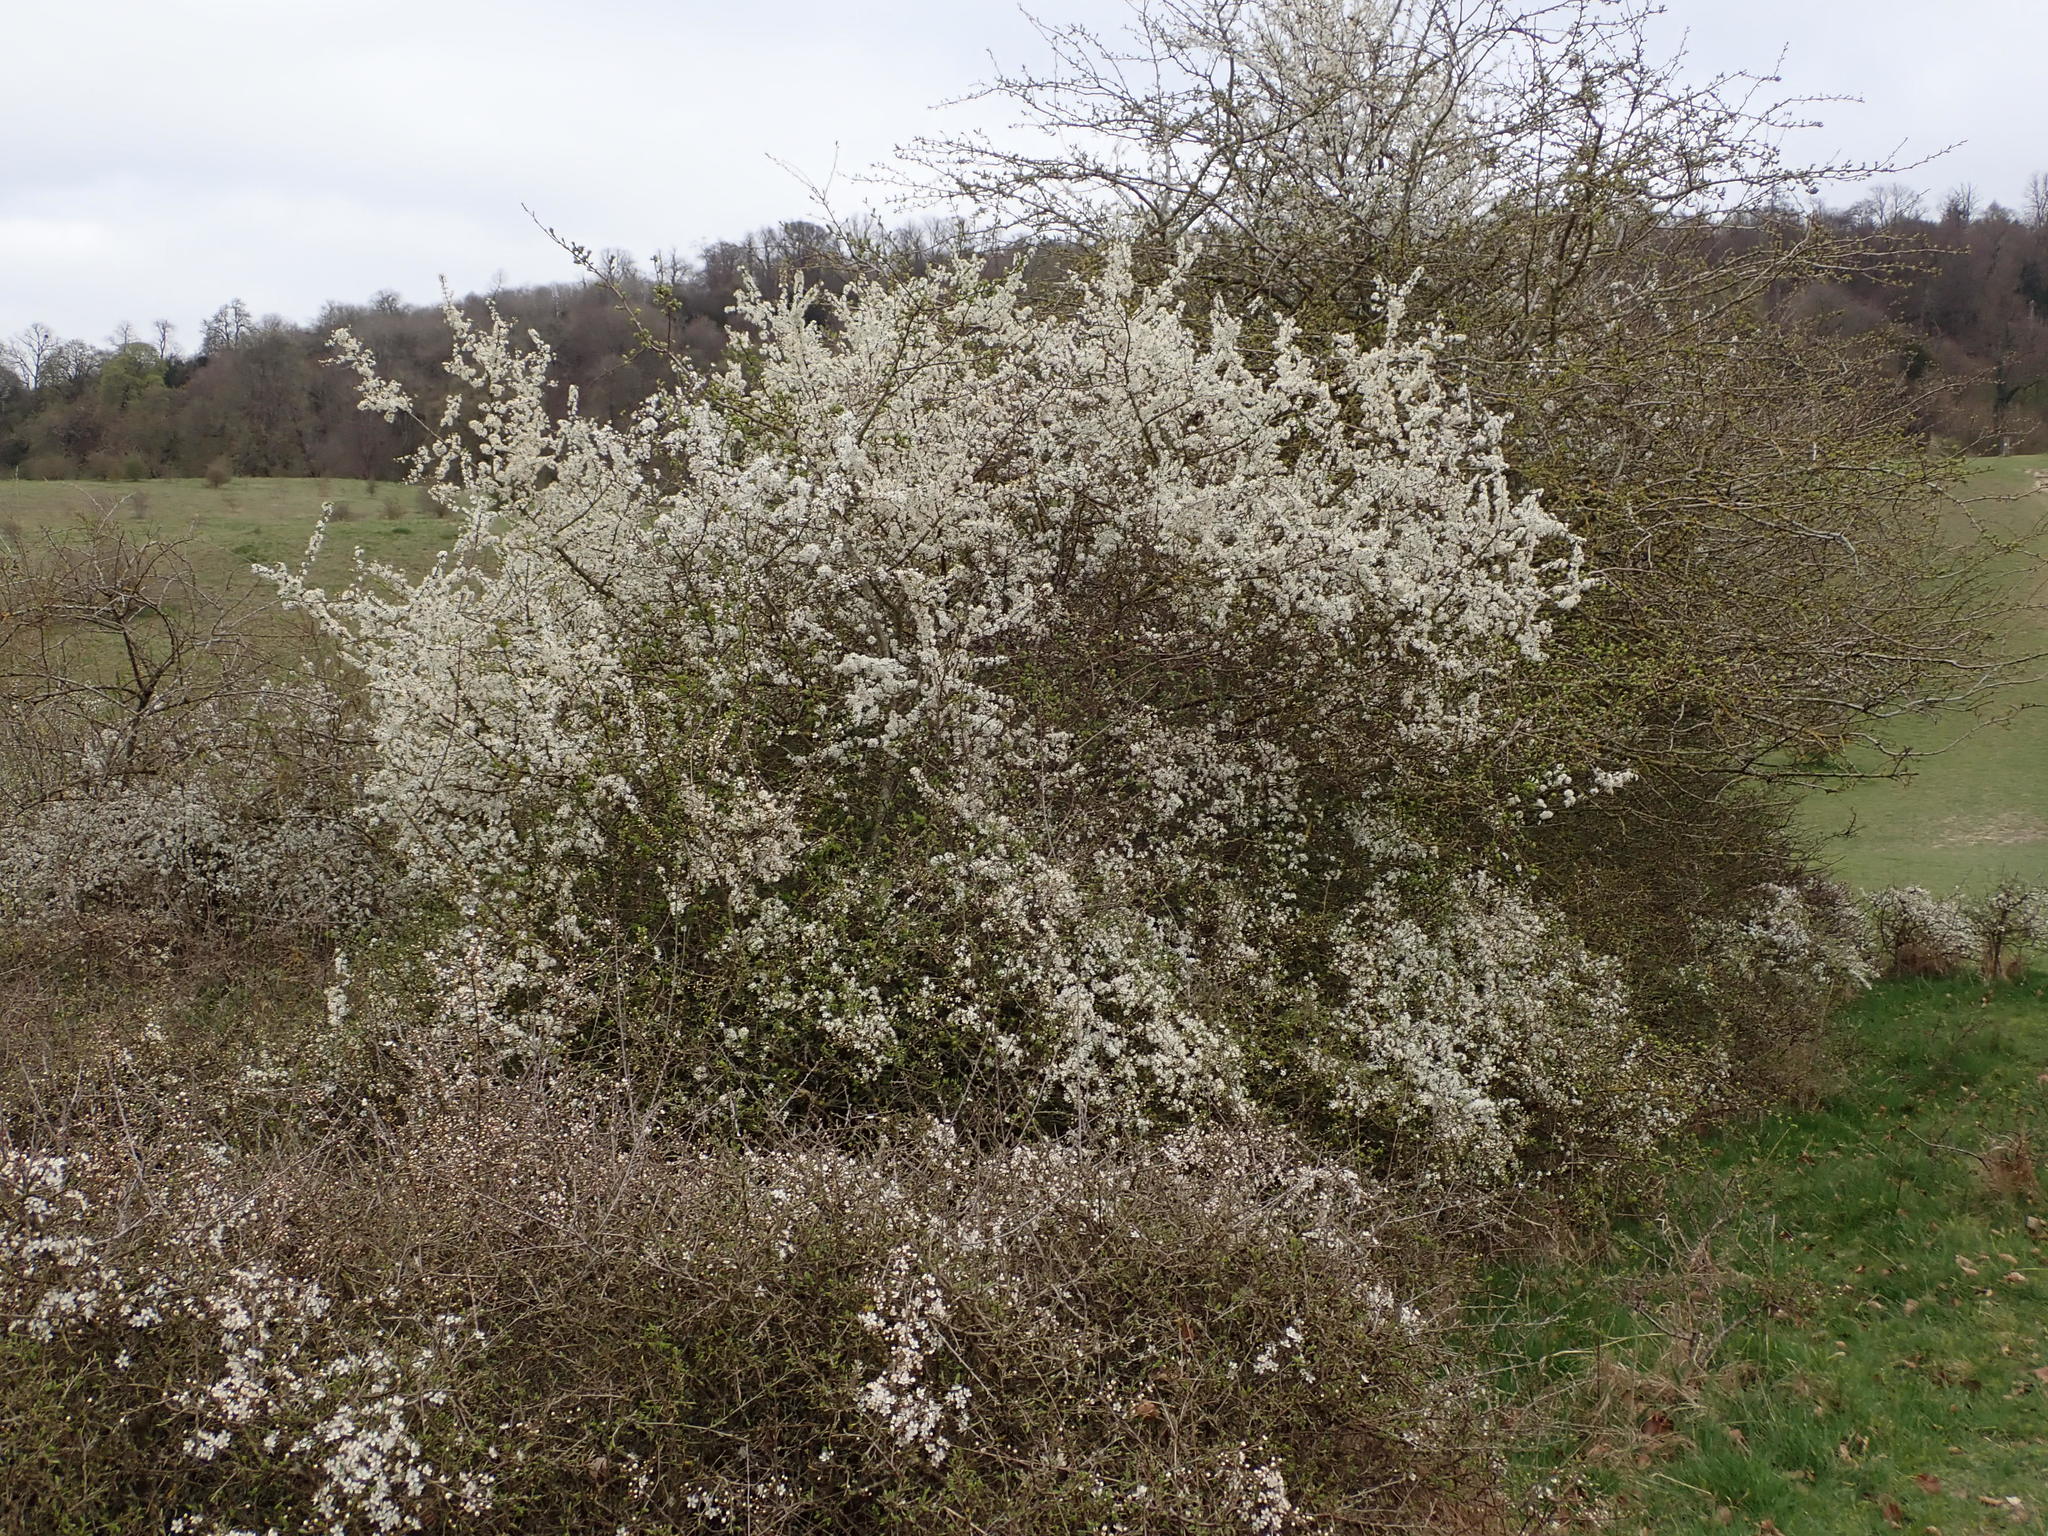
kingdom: Plantae
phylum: Tracheophyta
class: Magnoliopsida
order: Rosales
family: Rosaceae
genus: Prunus
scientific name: Prunus spinosa
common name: Blackthorn
